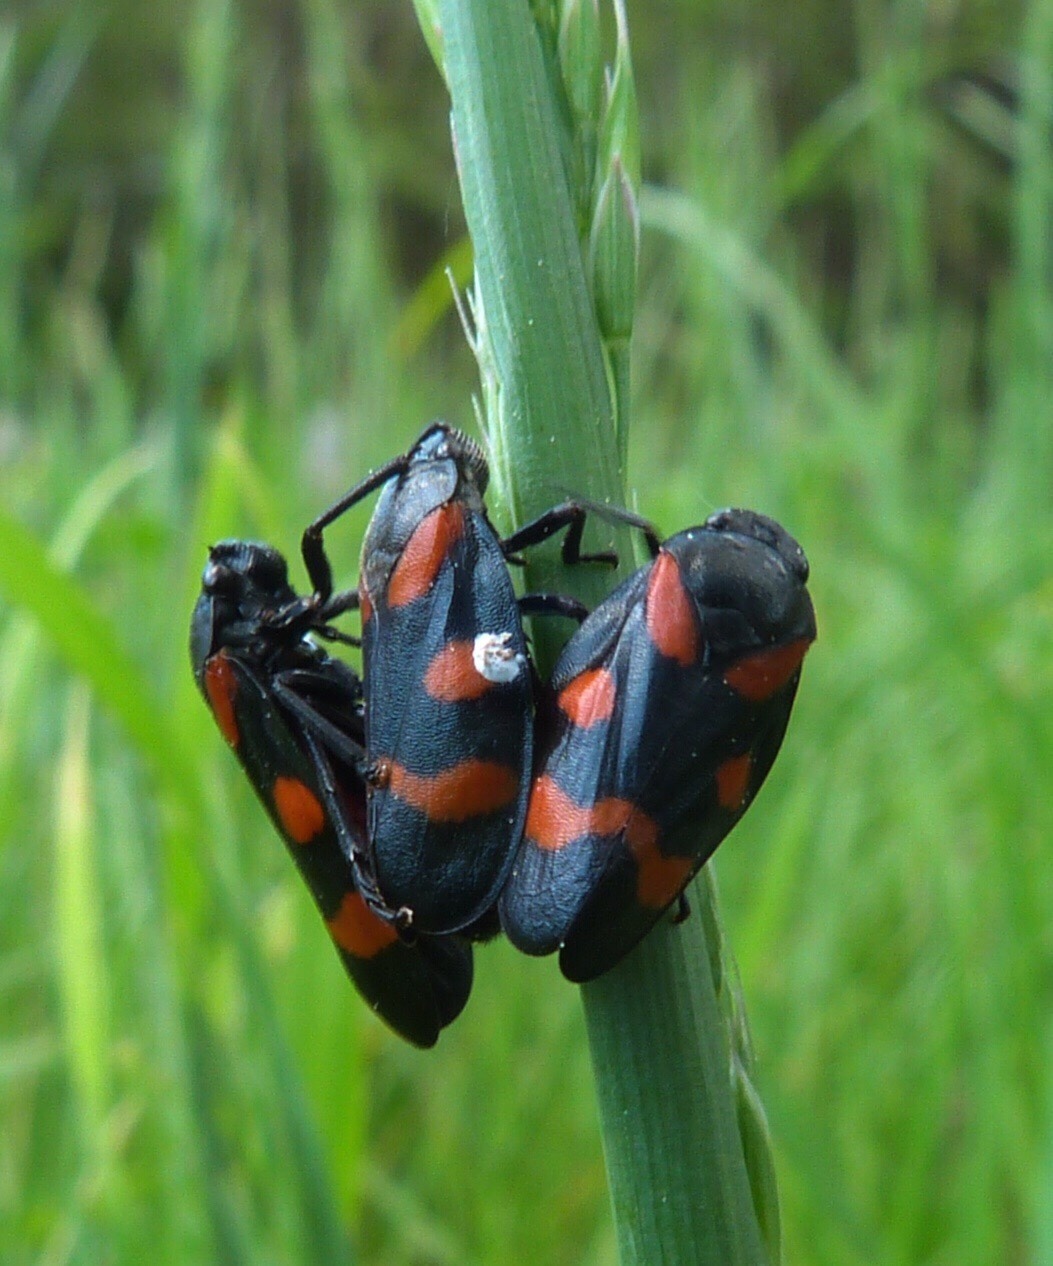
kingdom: Animalia
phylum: Arthropoda
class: Insecta
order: Hemiptera
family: Cercopidae
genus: Cercopis
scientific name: Cercopis sanguinolenta
